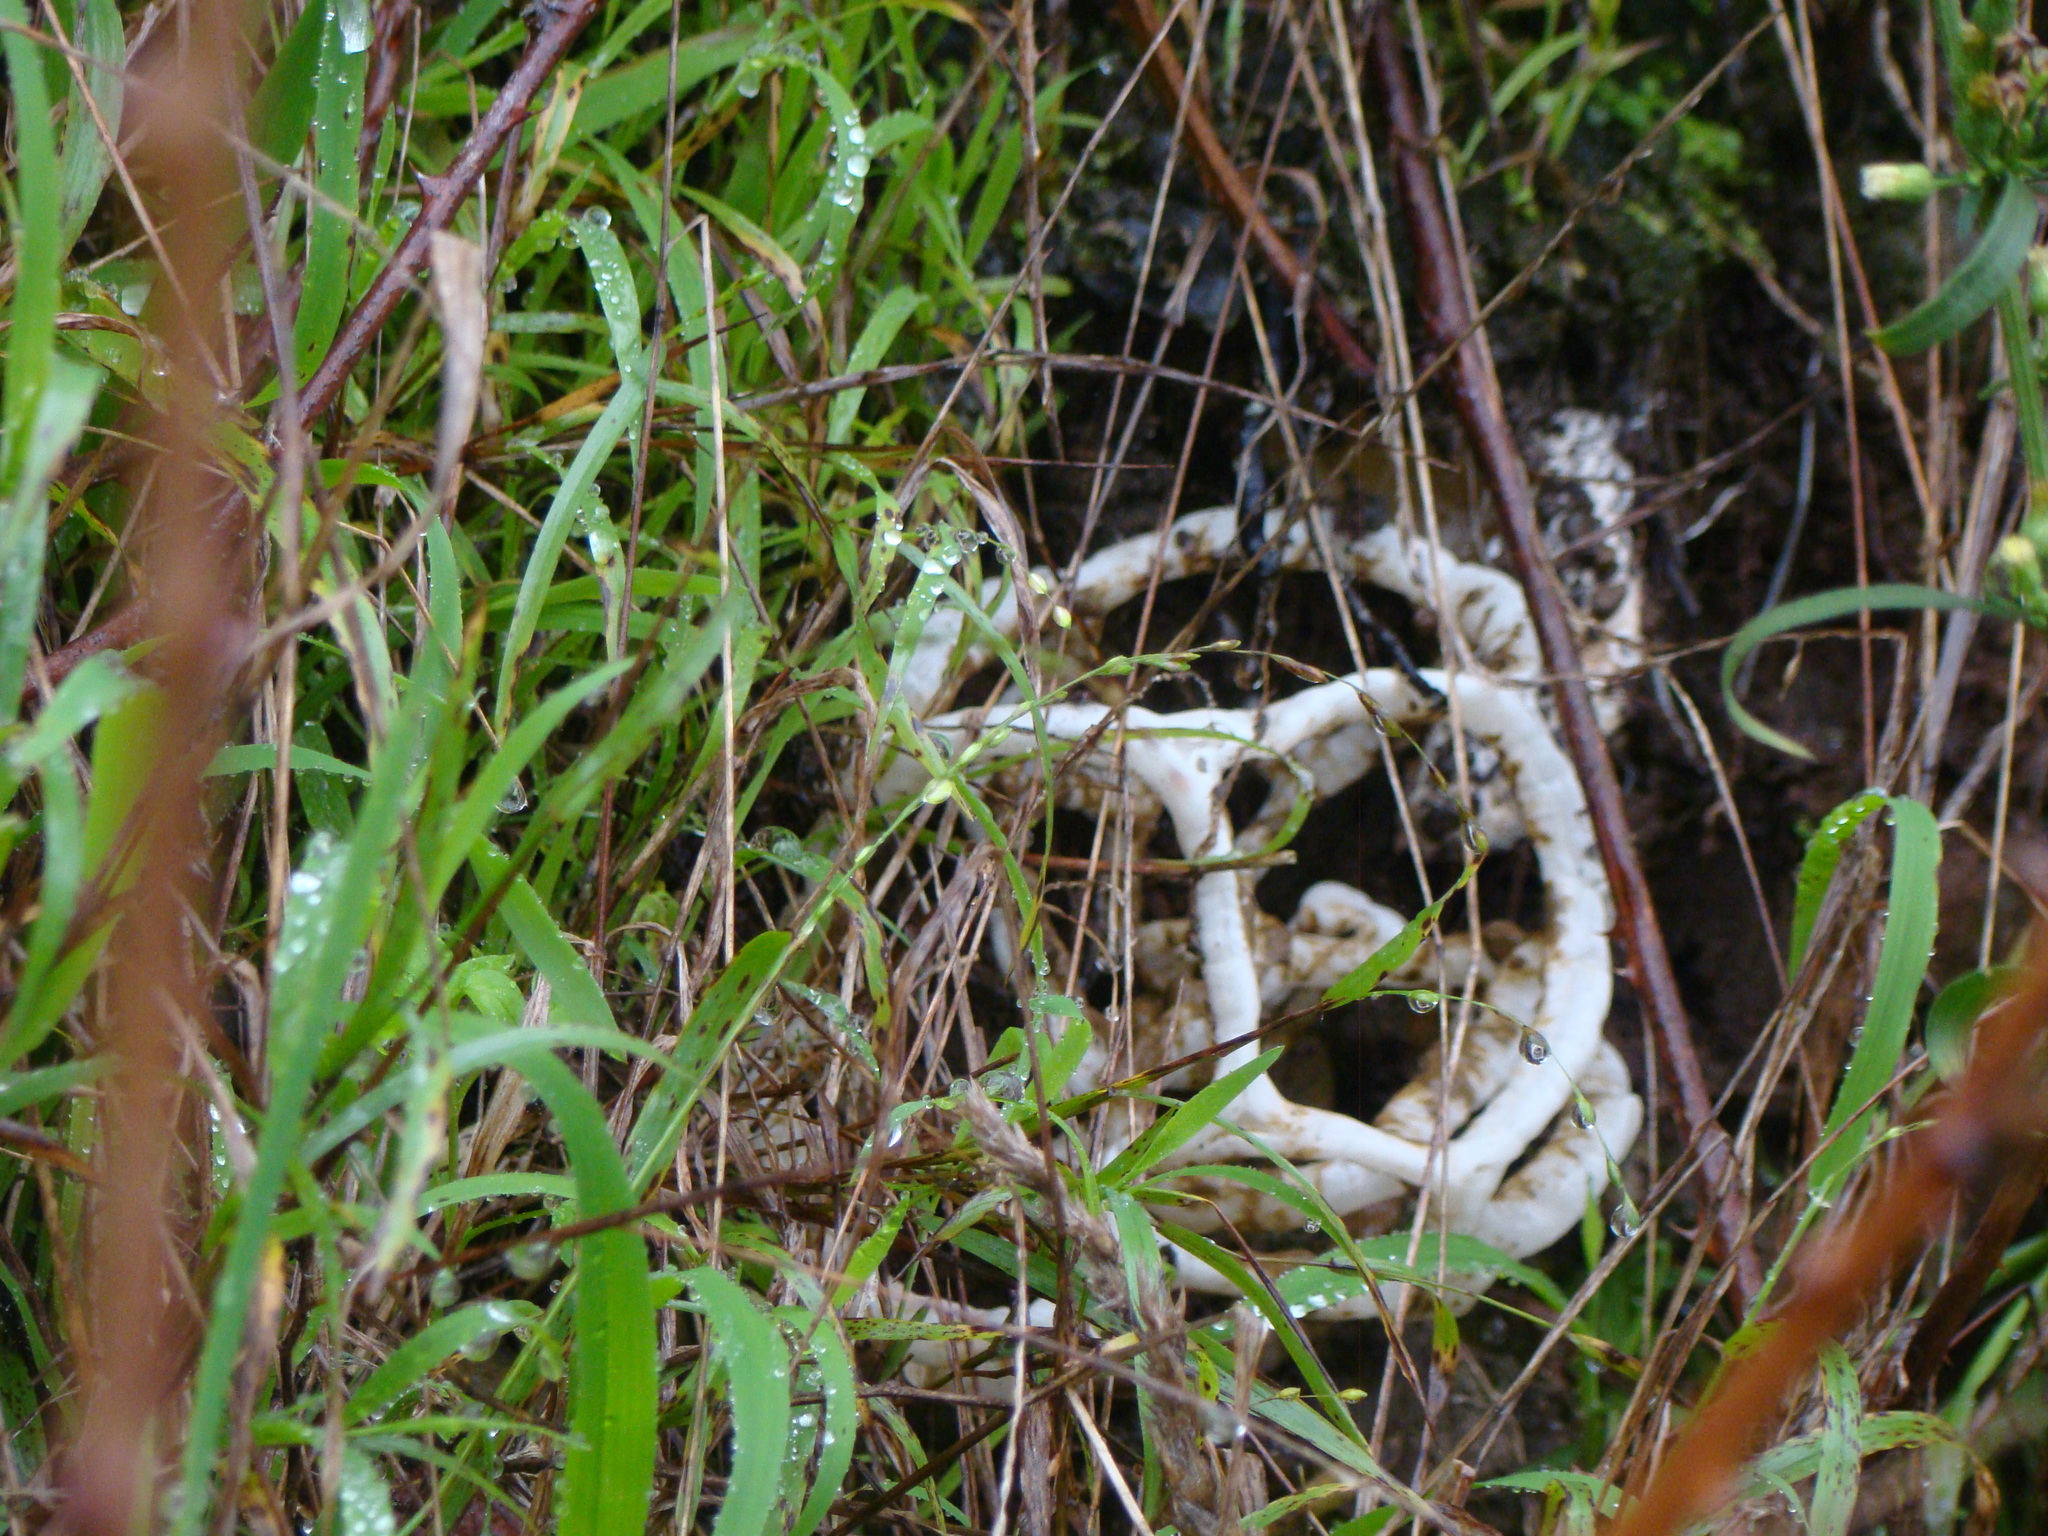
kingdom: Fungi
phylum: Basidiomycota
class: Agaricomycetes
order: Phallales
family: Phallaceae
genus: Ileodictyon
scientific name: Ileodictyon cibarium
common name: Basket fungus
